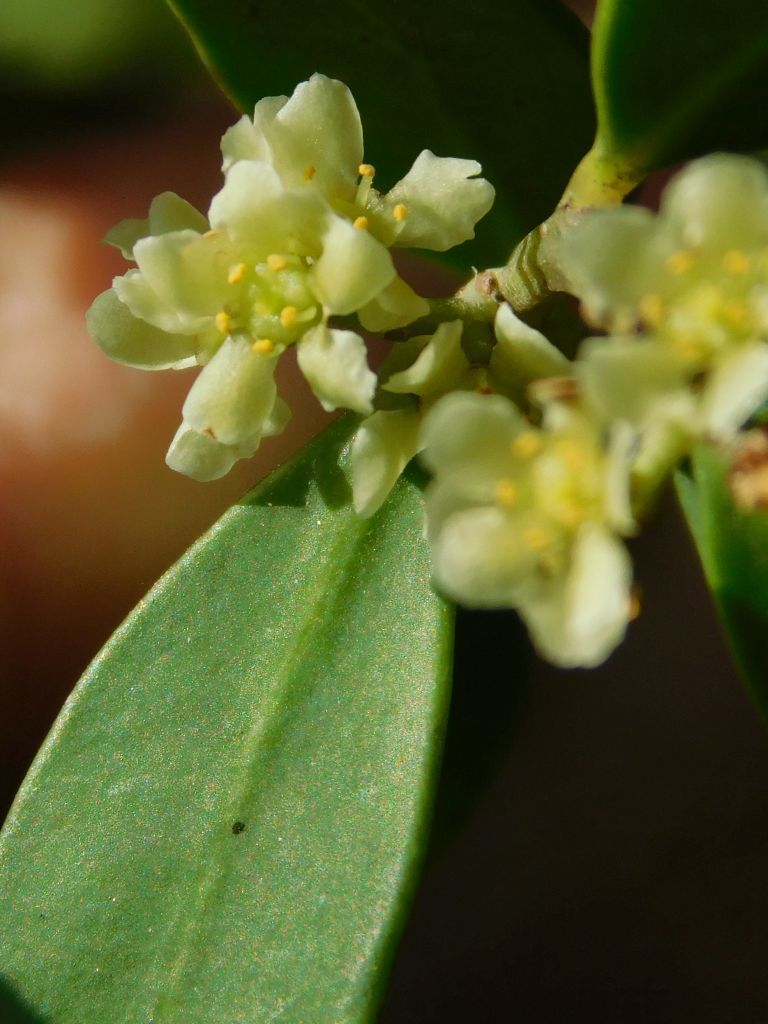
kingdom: Plantae
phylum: Tracheophyta
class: Magnoliopsida
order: Celastrales
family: Celastraceae
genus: Gymnosporia
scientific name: Gymnosporia laurina
